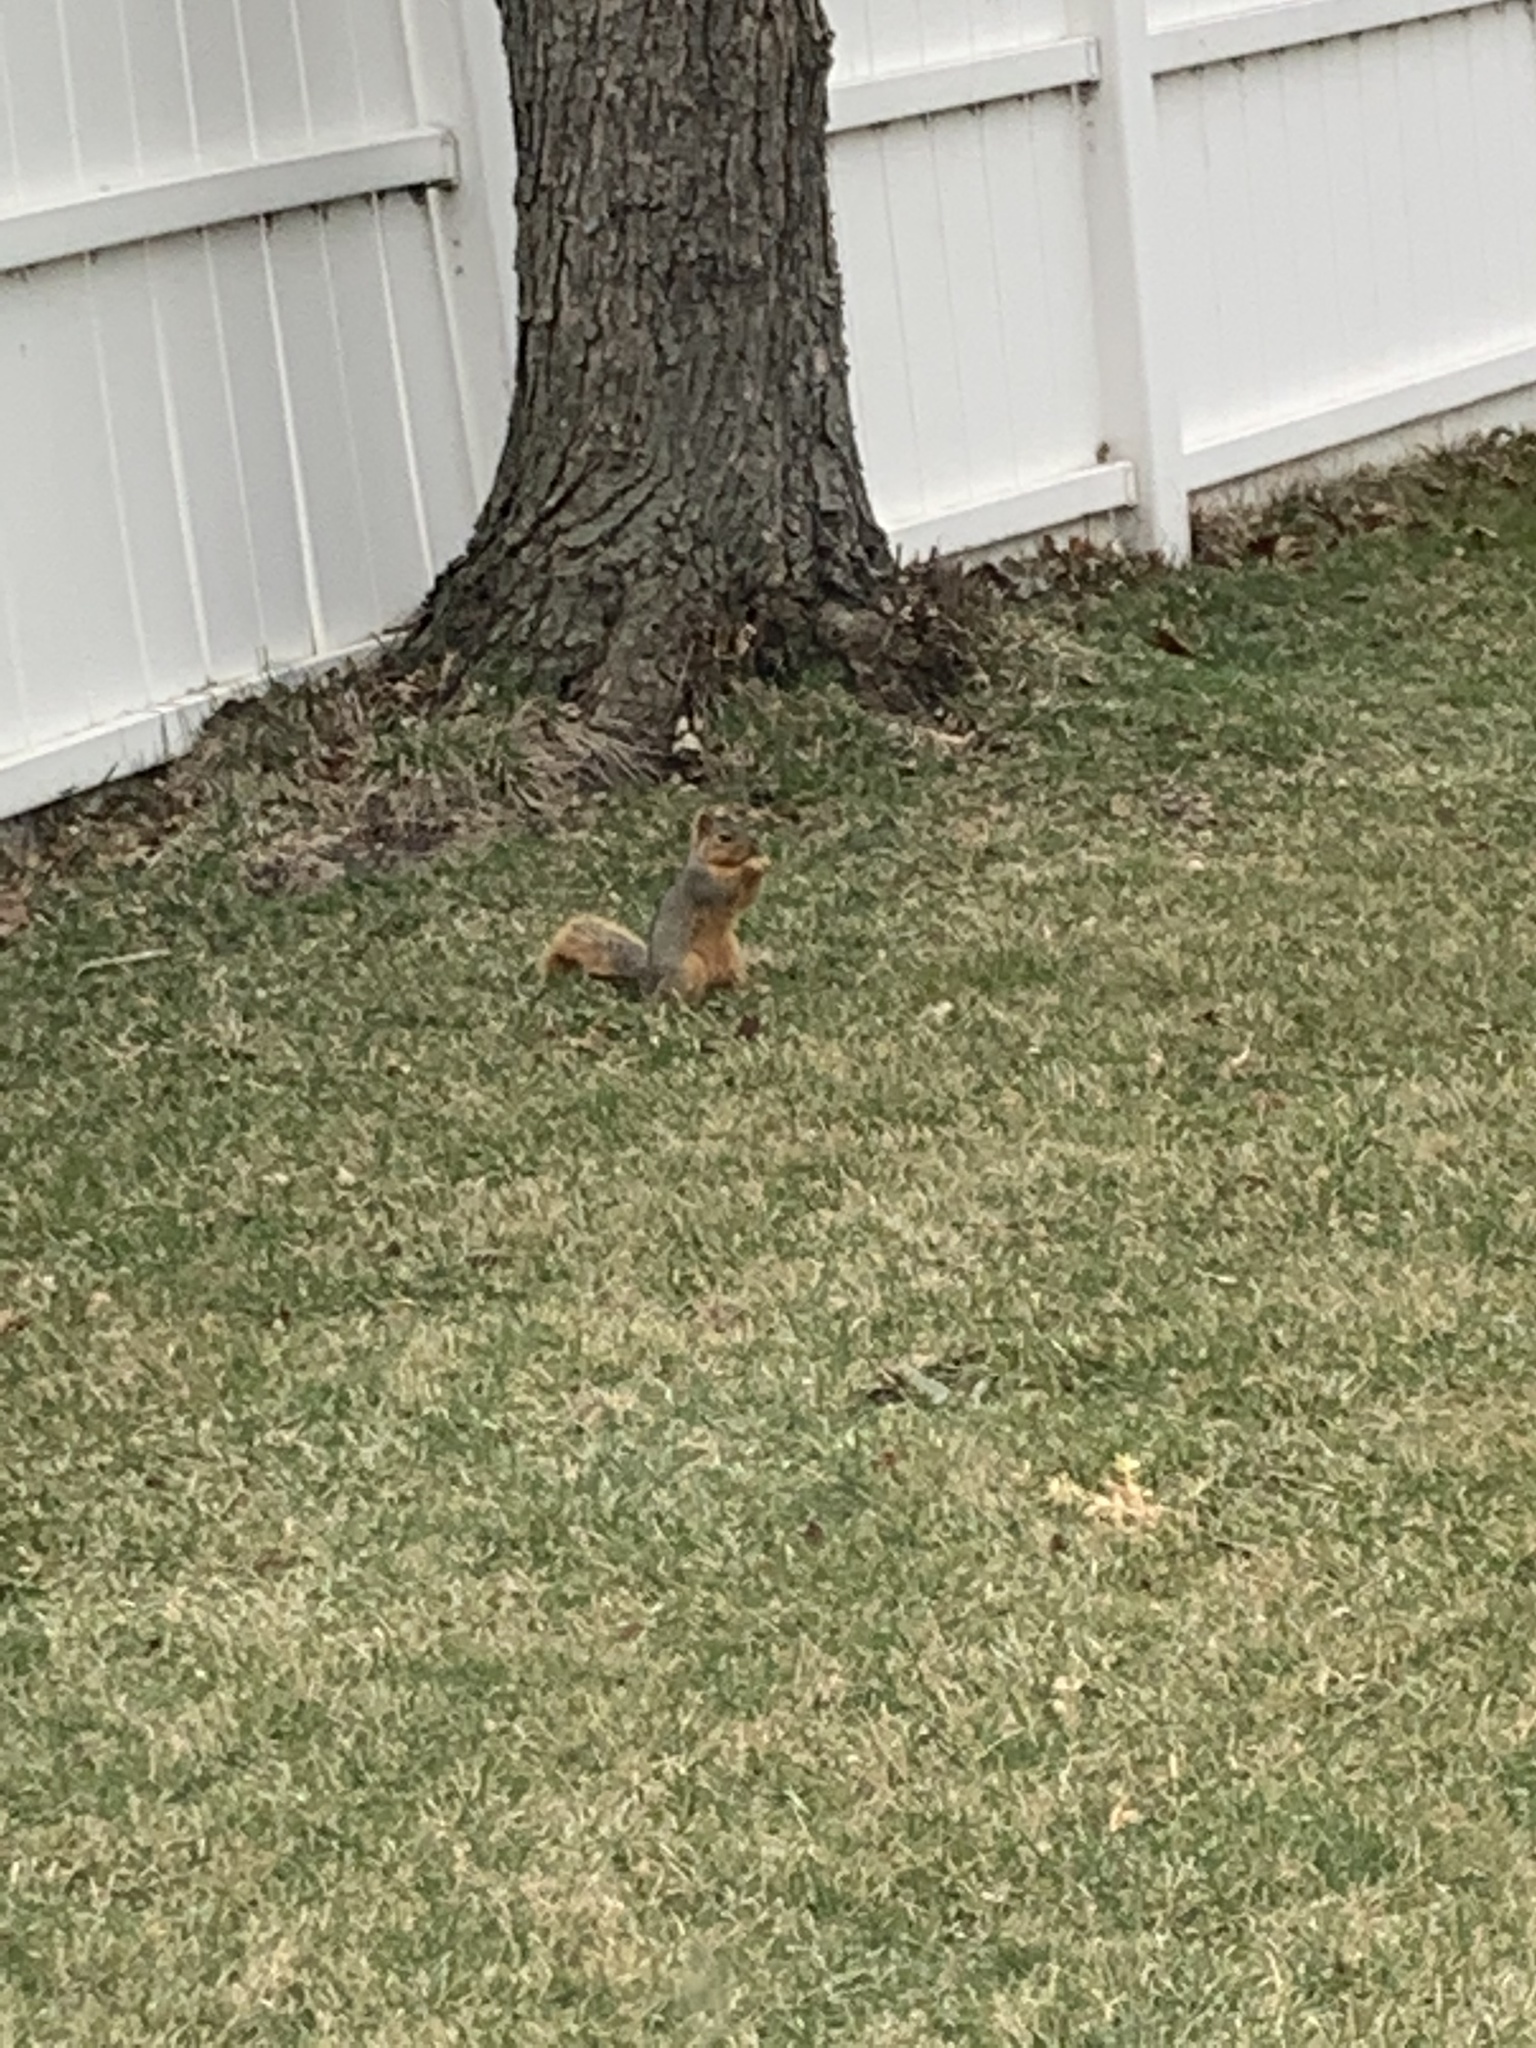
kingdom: Animalia
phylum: Chordata
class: Mammalia
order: Rodentia
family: Sciuridae
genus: Sciurus
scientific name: Sciurus niger
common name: Fox squirrel
